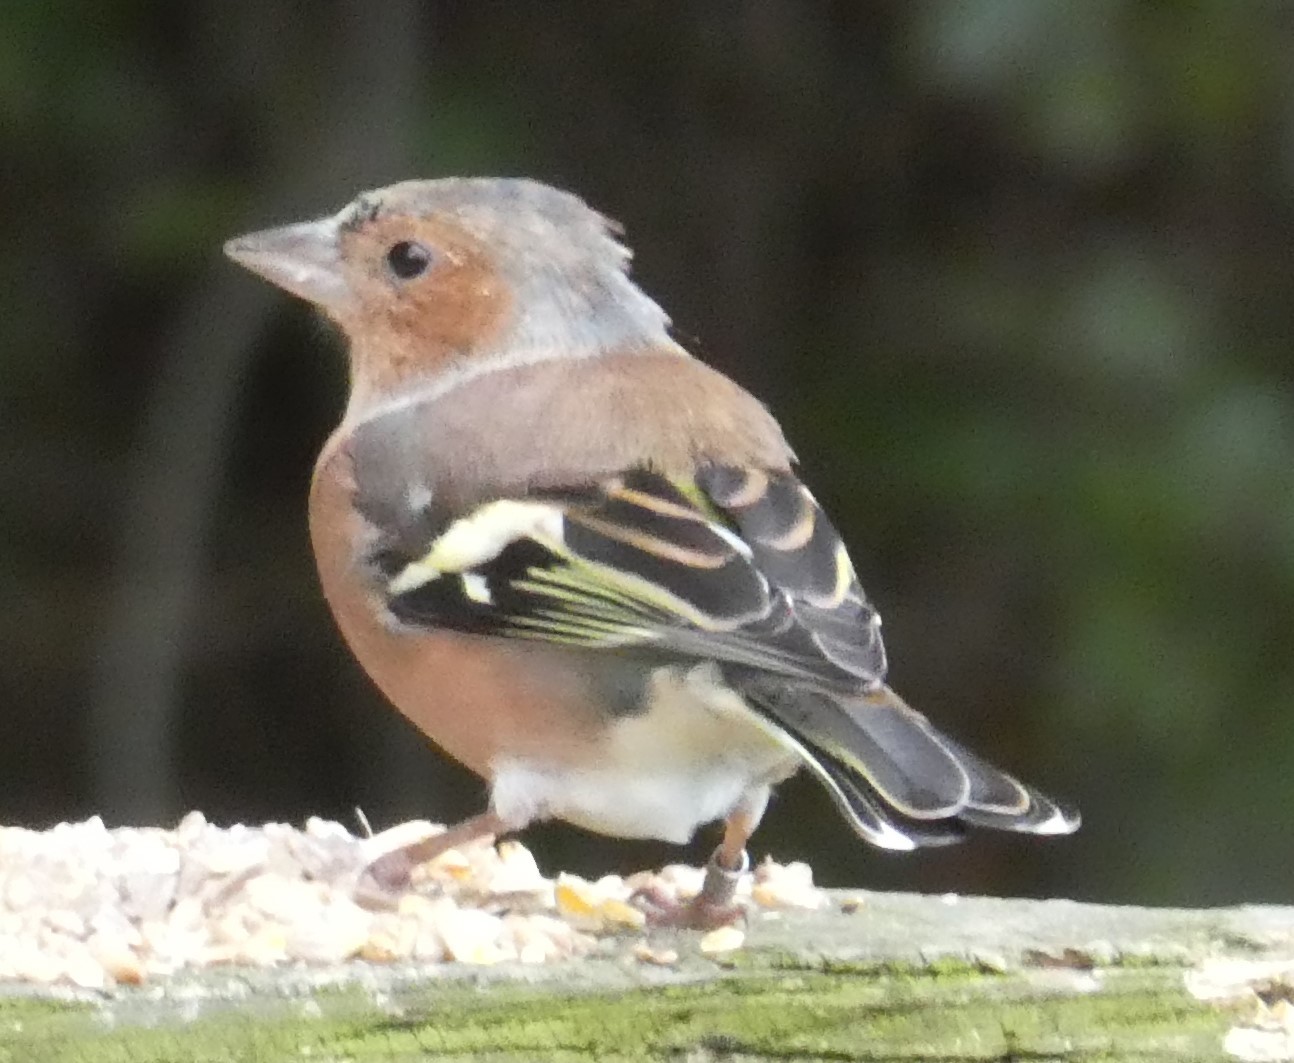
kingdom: Animalia
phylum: Chordata
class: Aves
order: Passeriformes
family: Fringillidae
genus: Fringilla
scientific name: Fringilla coelebs
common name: Common chaffinch
